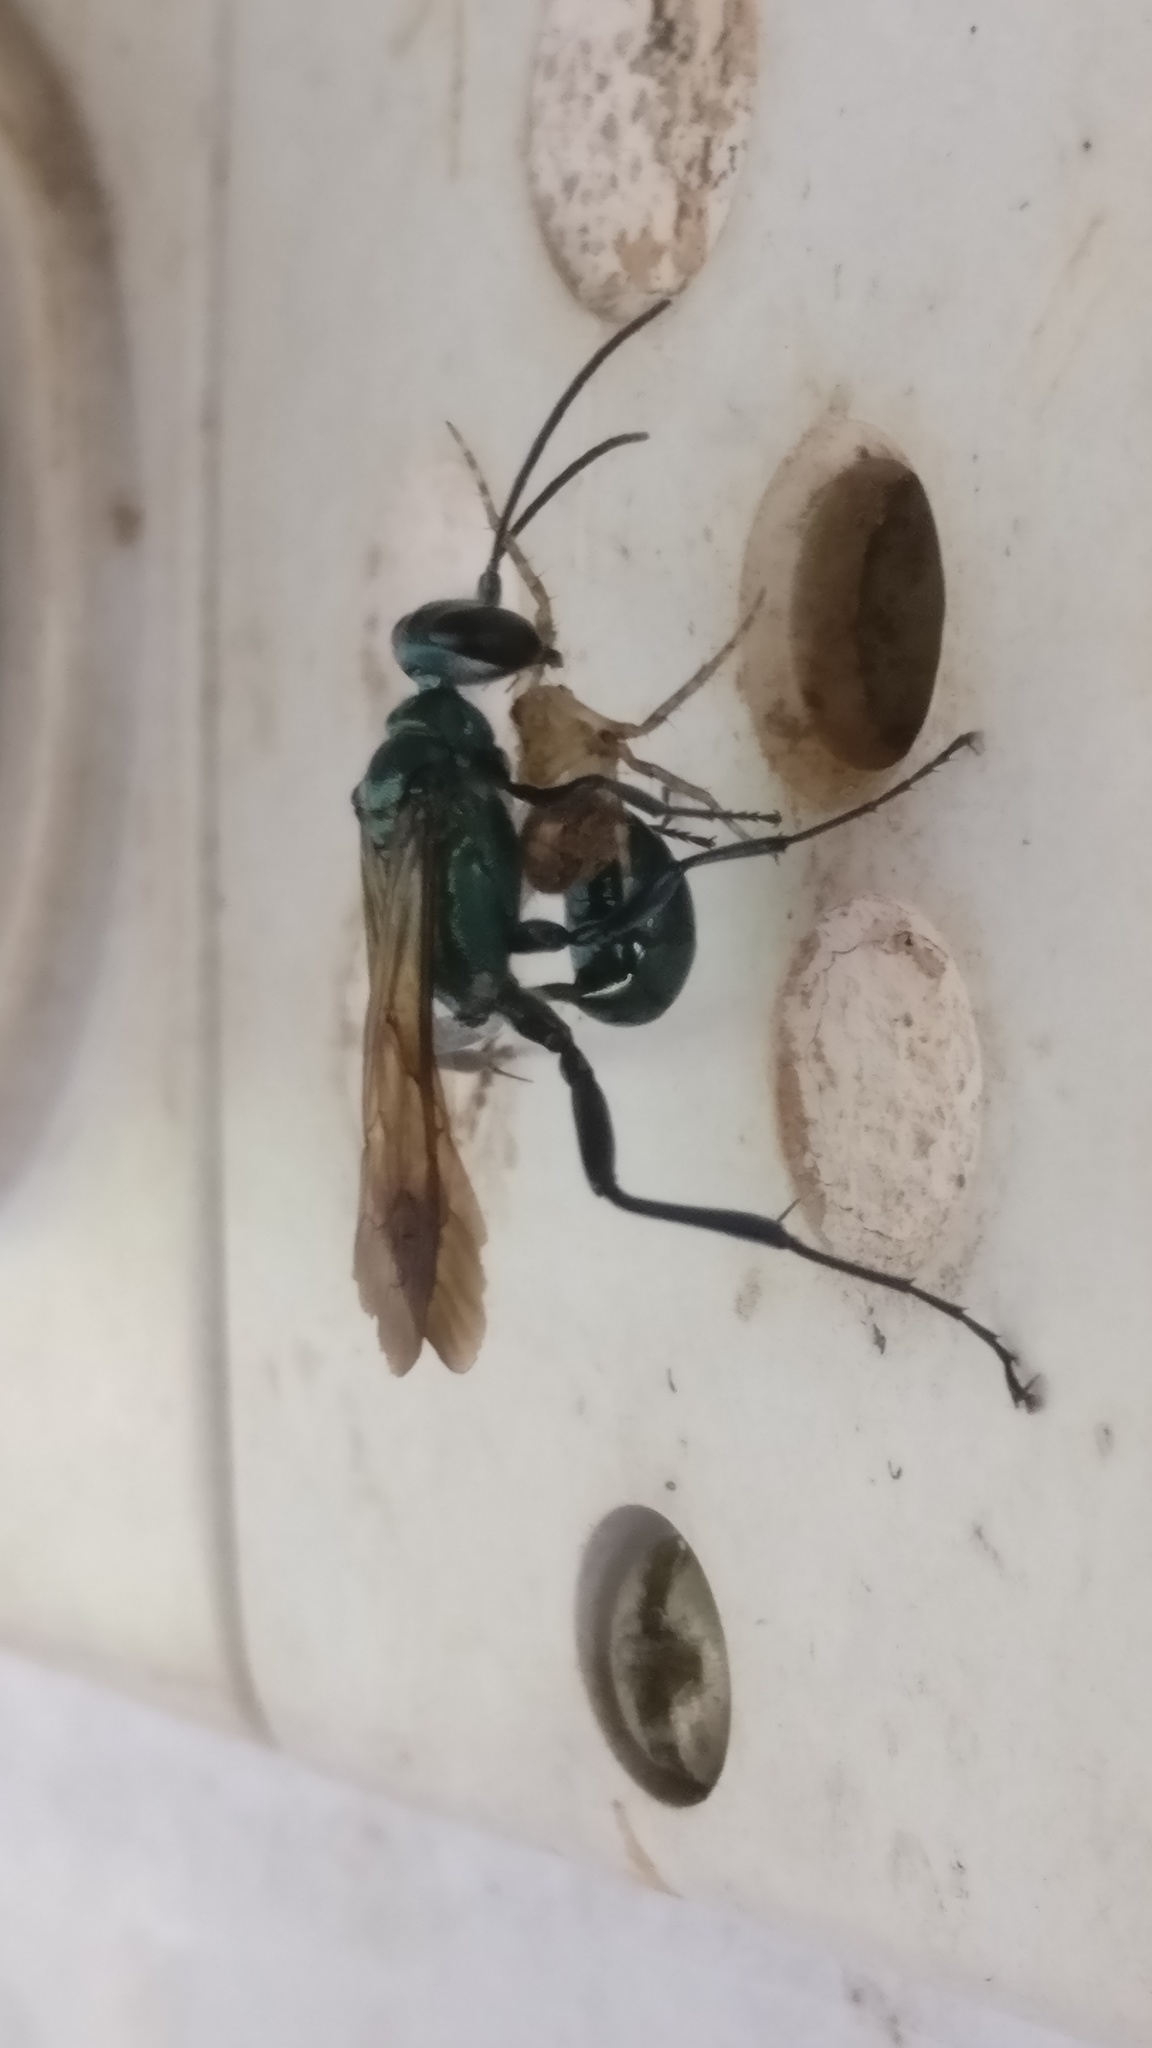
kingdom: Animalia
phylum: Arthropoda
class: Insecta
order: Hymenoptera
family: Sphecidae
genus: Chalybion
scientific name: Chalybion bengalense
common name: Mud dauber
